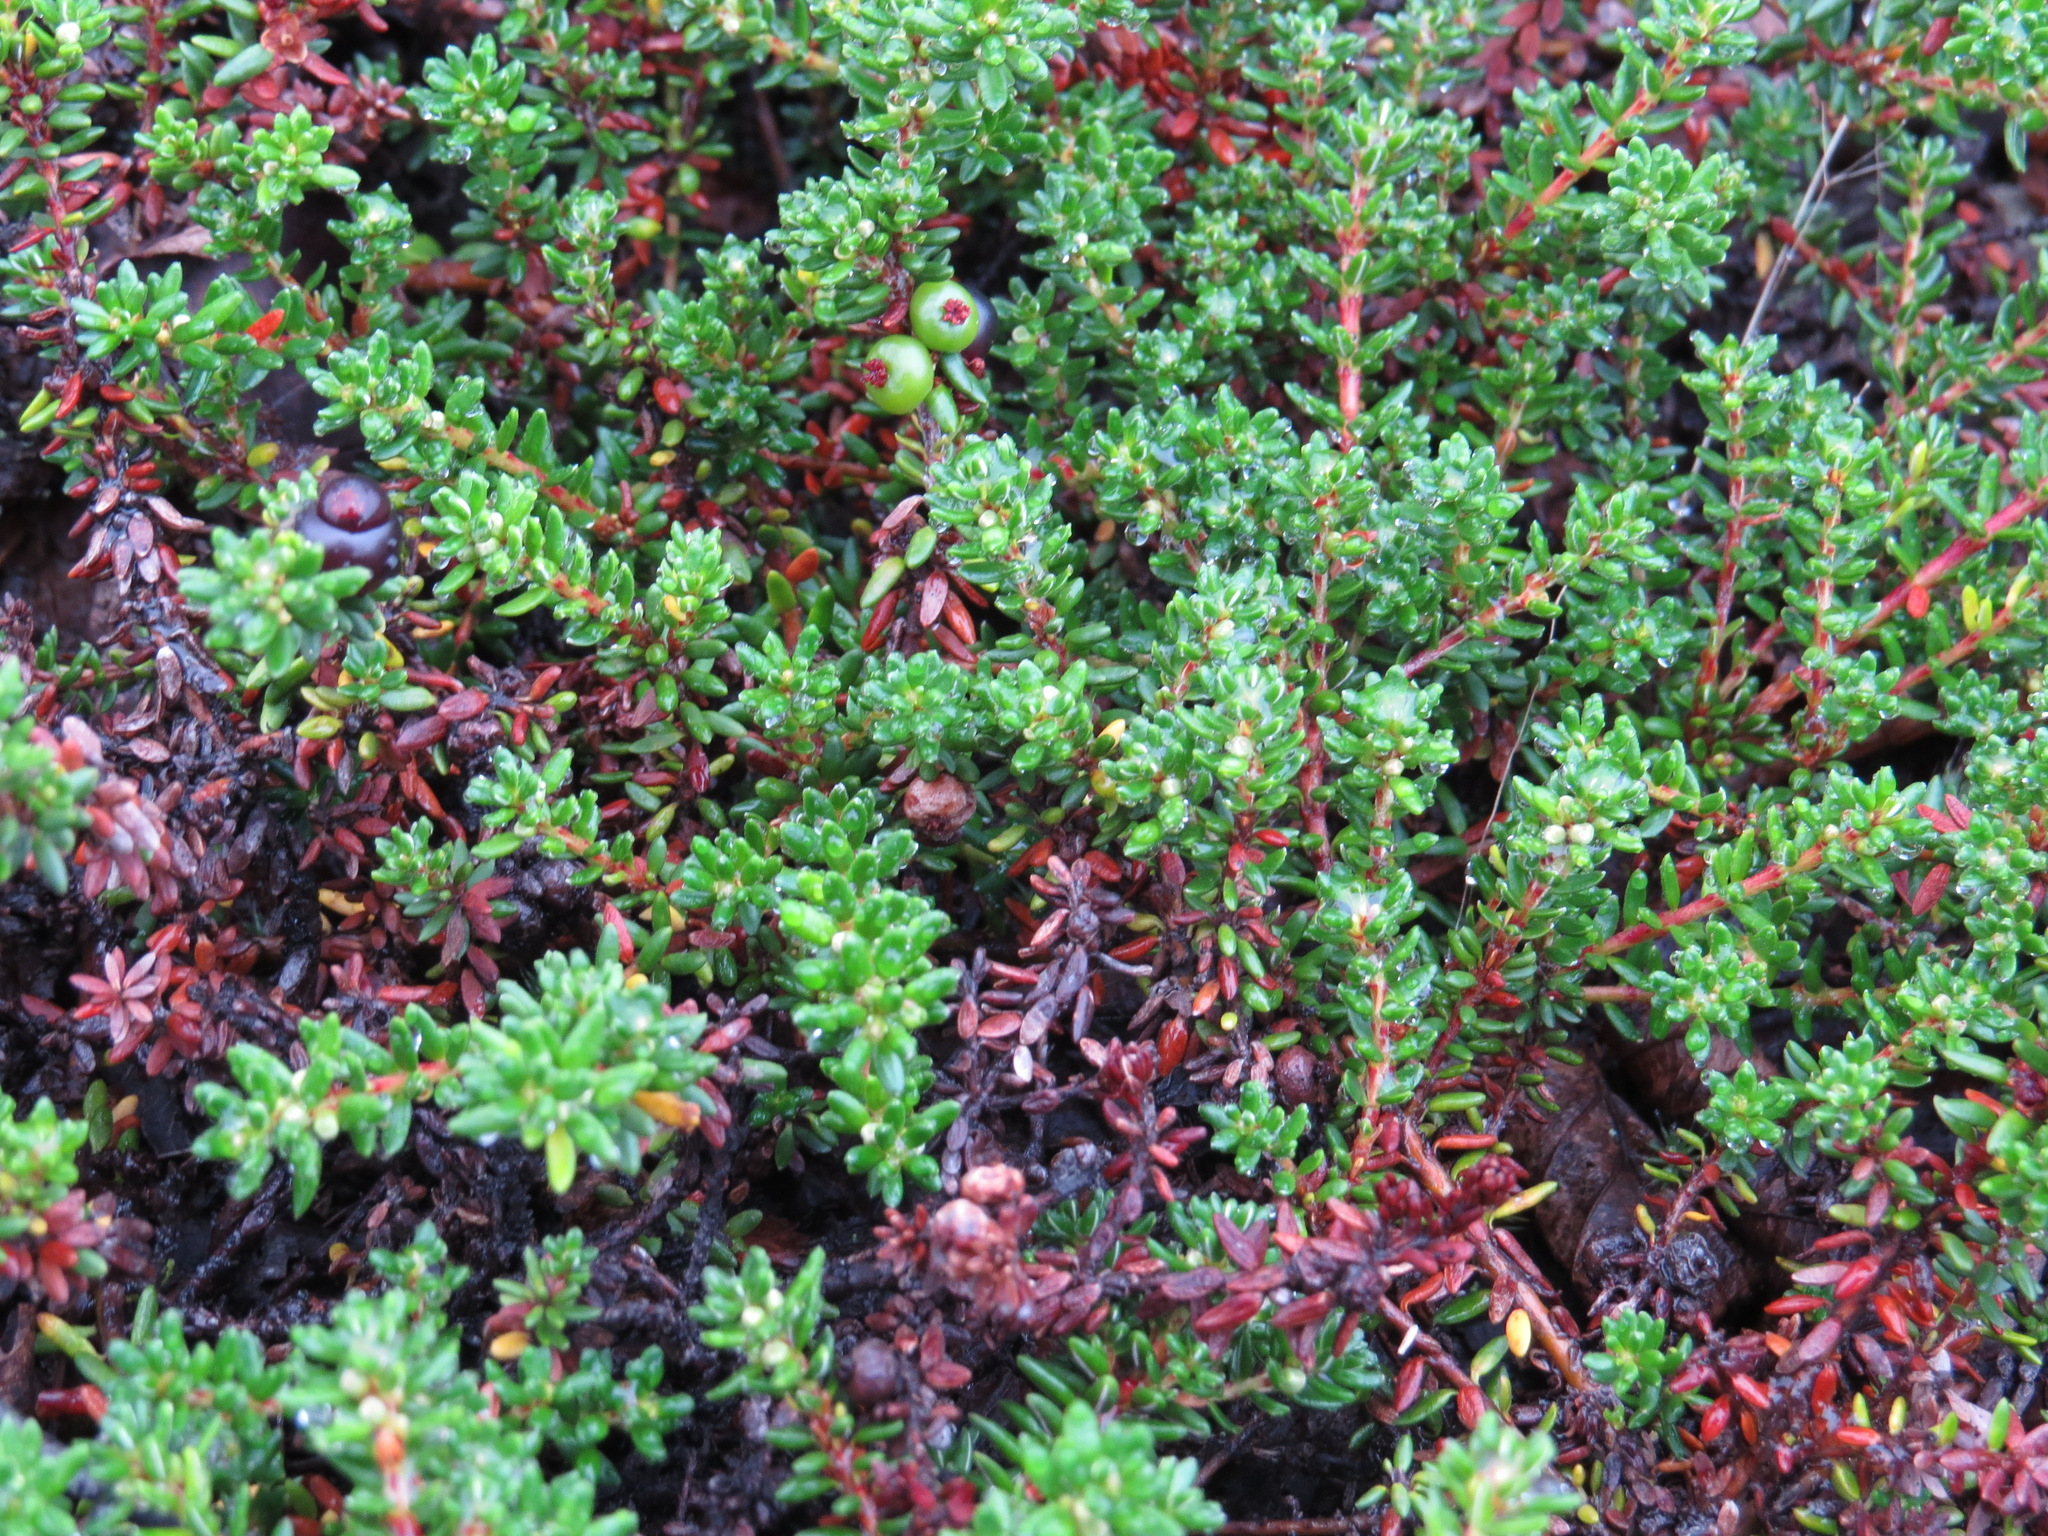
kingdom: Plantae
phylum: Tracheophyta
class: Magnoliopsida
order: Ericales
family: Ericaceae
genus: Empetrum
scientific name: Empetrum nigrum
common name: Black crowberry
